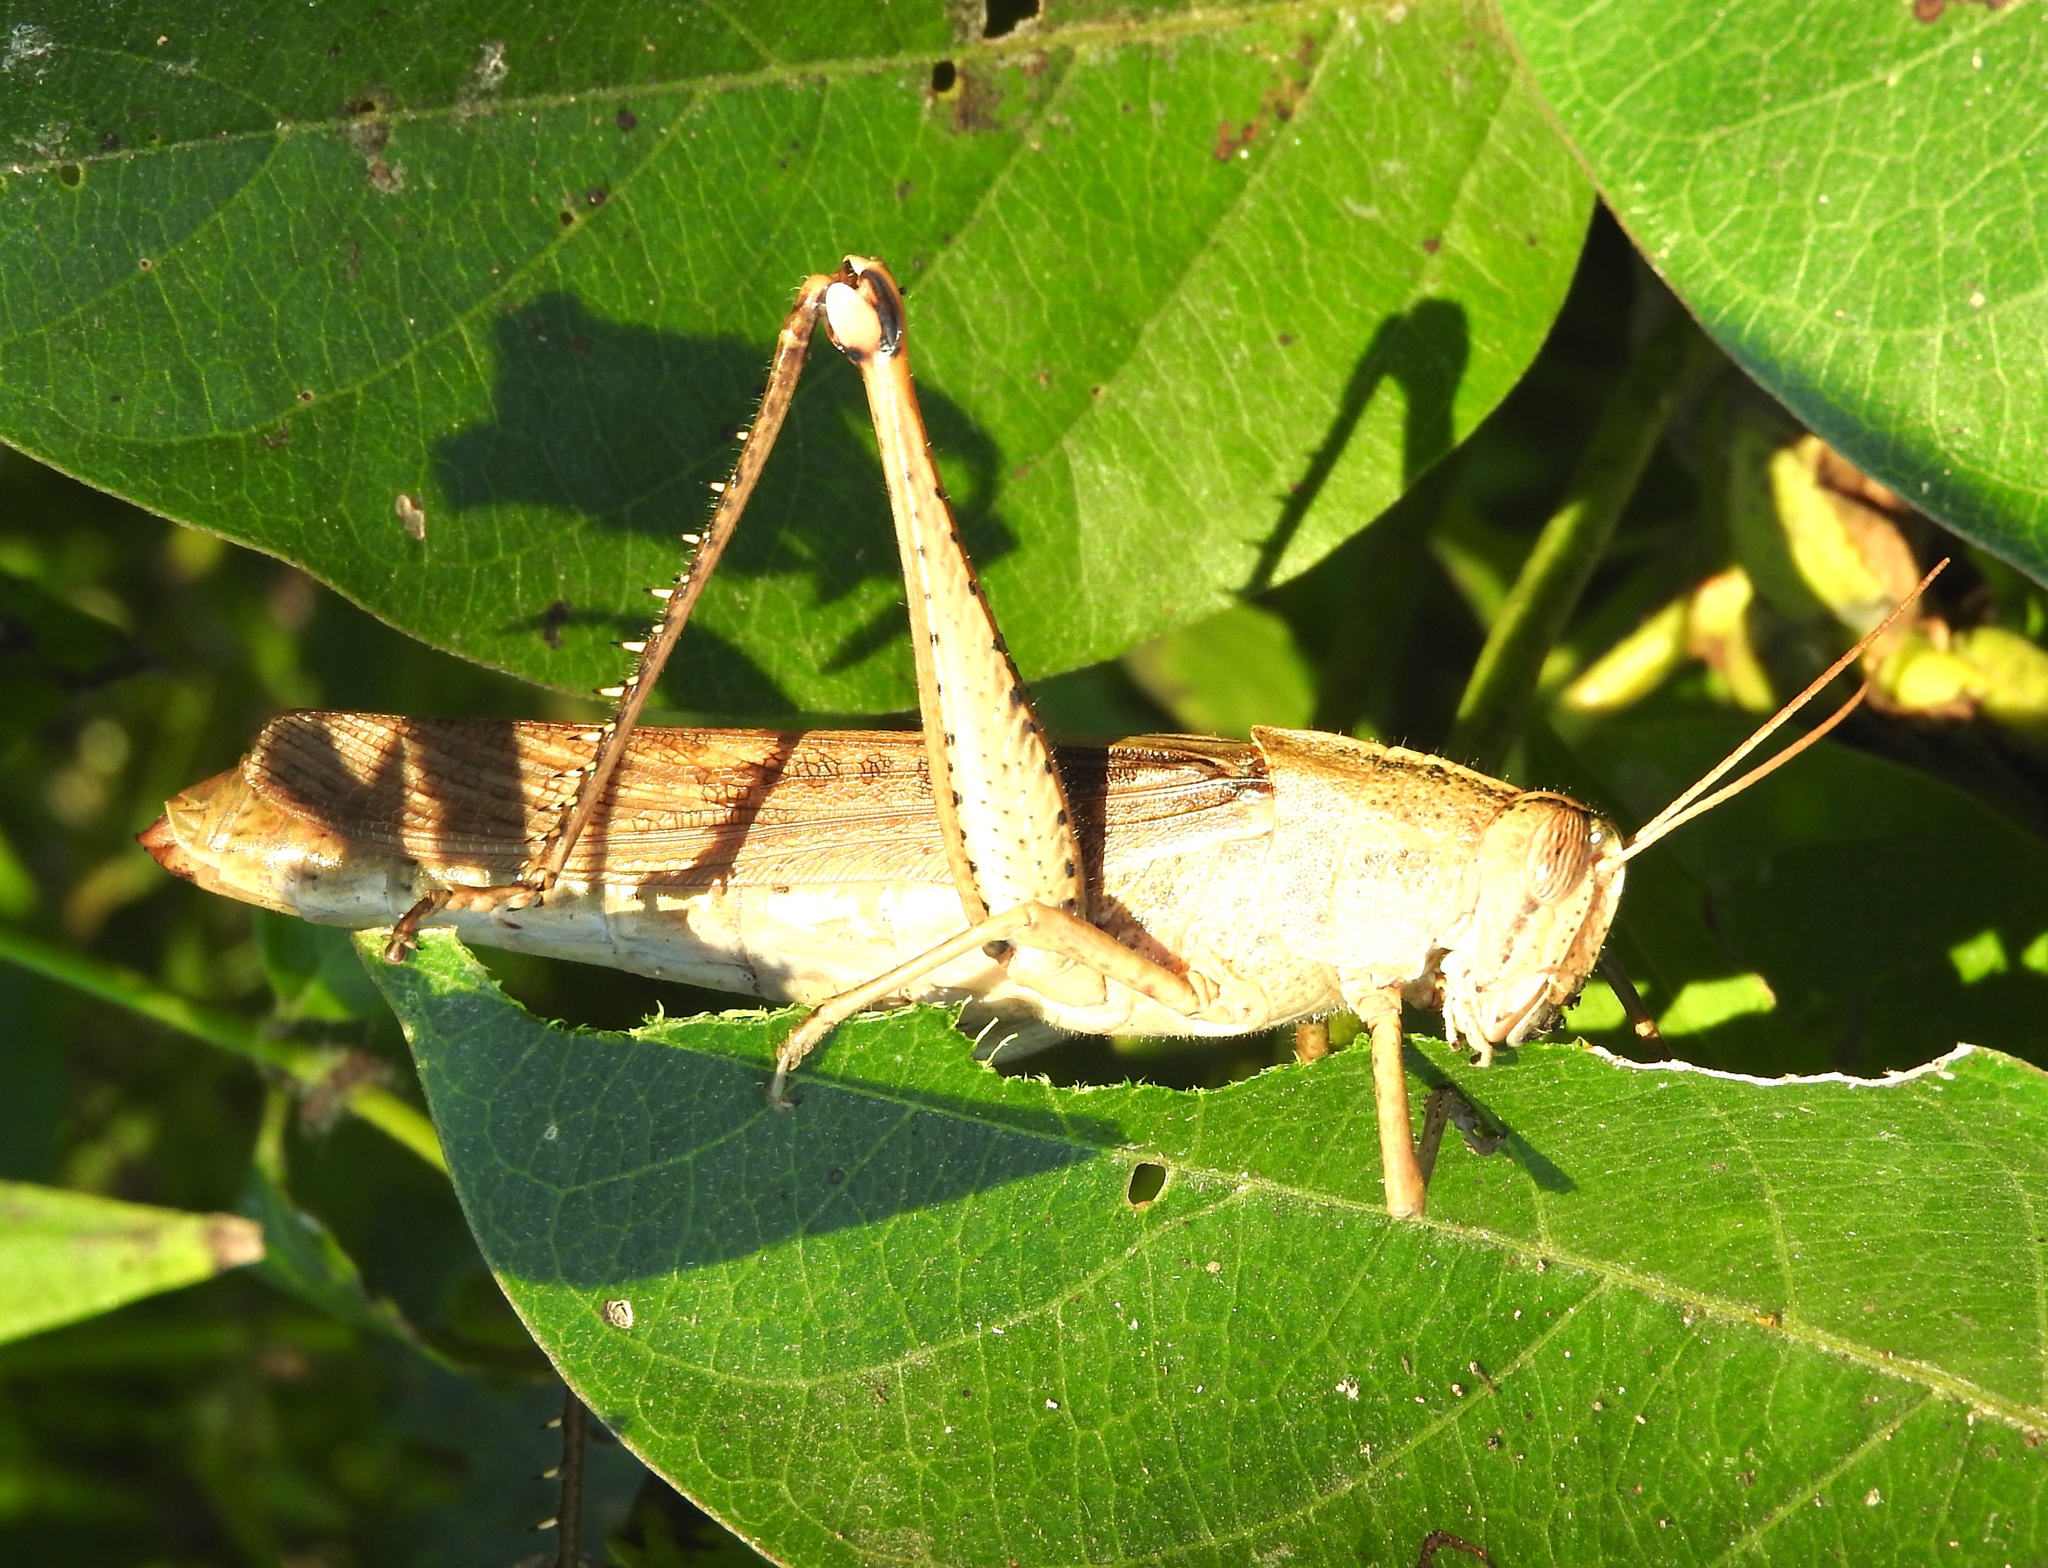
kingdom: Animalia
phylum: Arthropoda
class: Insecta
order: Orthoptera
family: Acrididae
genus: Schistocerca
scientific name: Schistocerca
